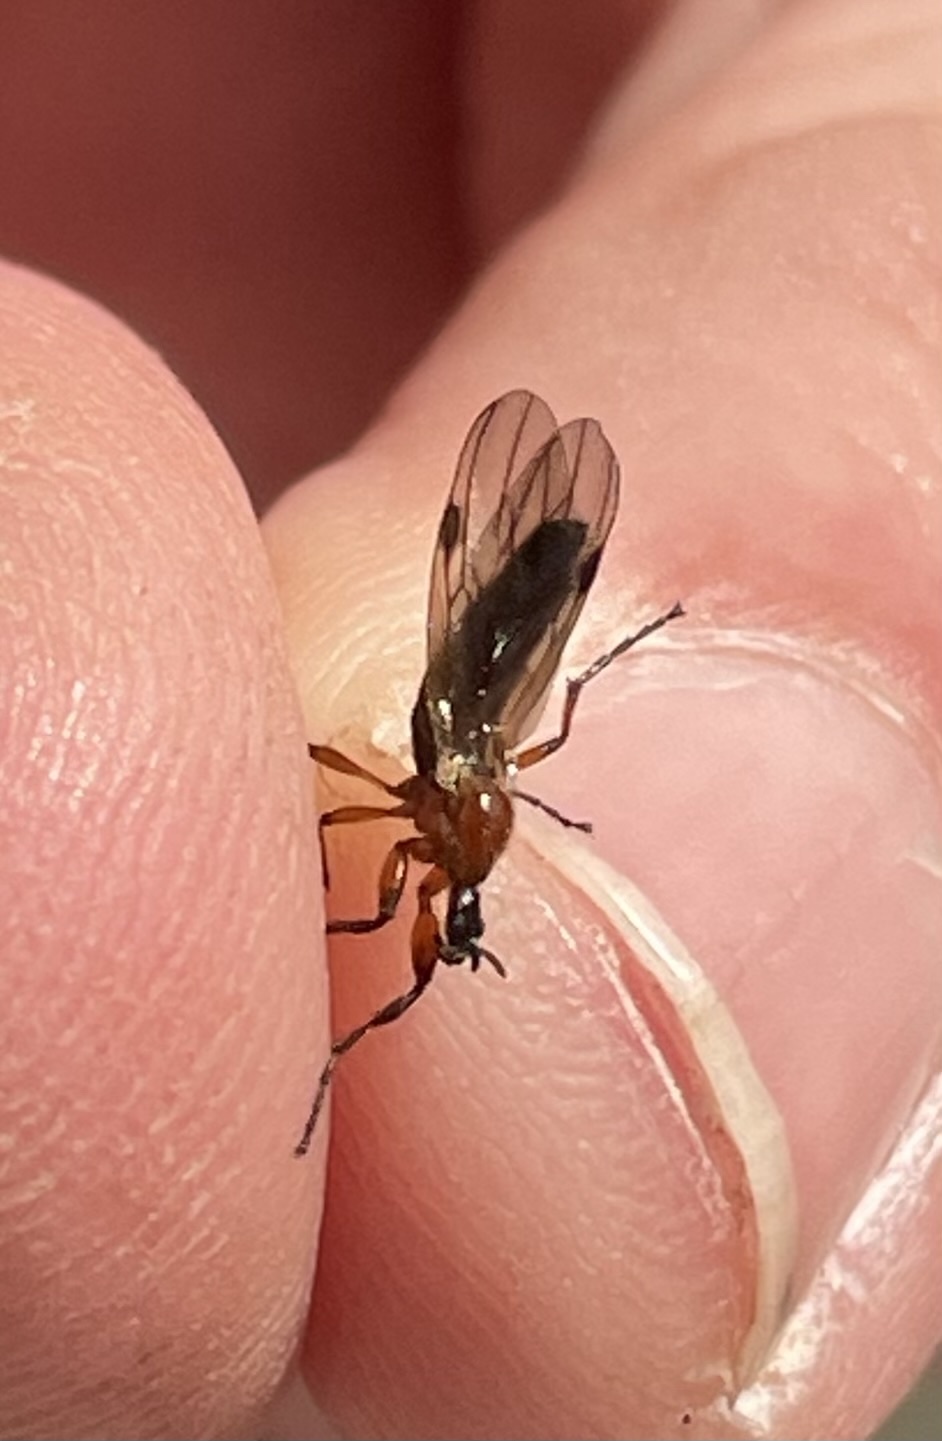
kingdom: Animalia
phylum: Arthropoda
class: Insecta
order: Diptera
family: Bibionidae
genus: Bibio
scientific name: Bibio longipes
